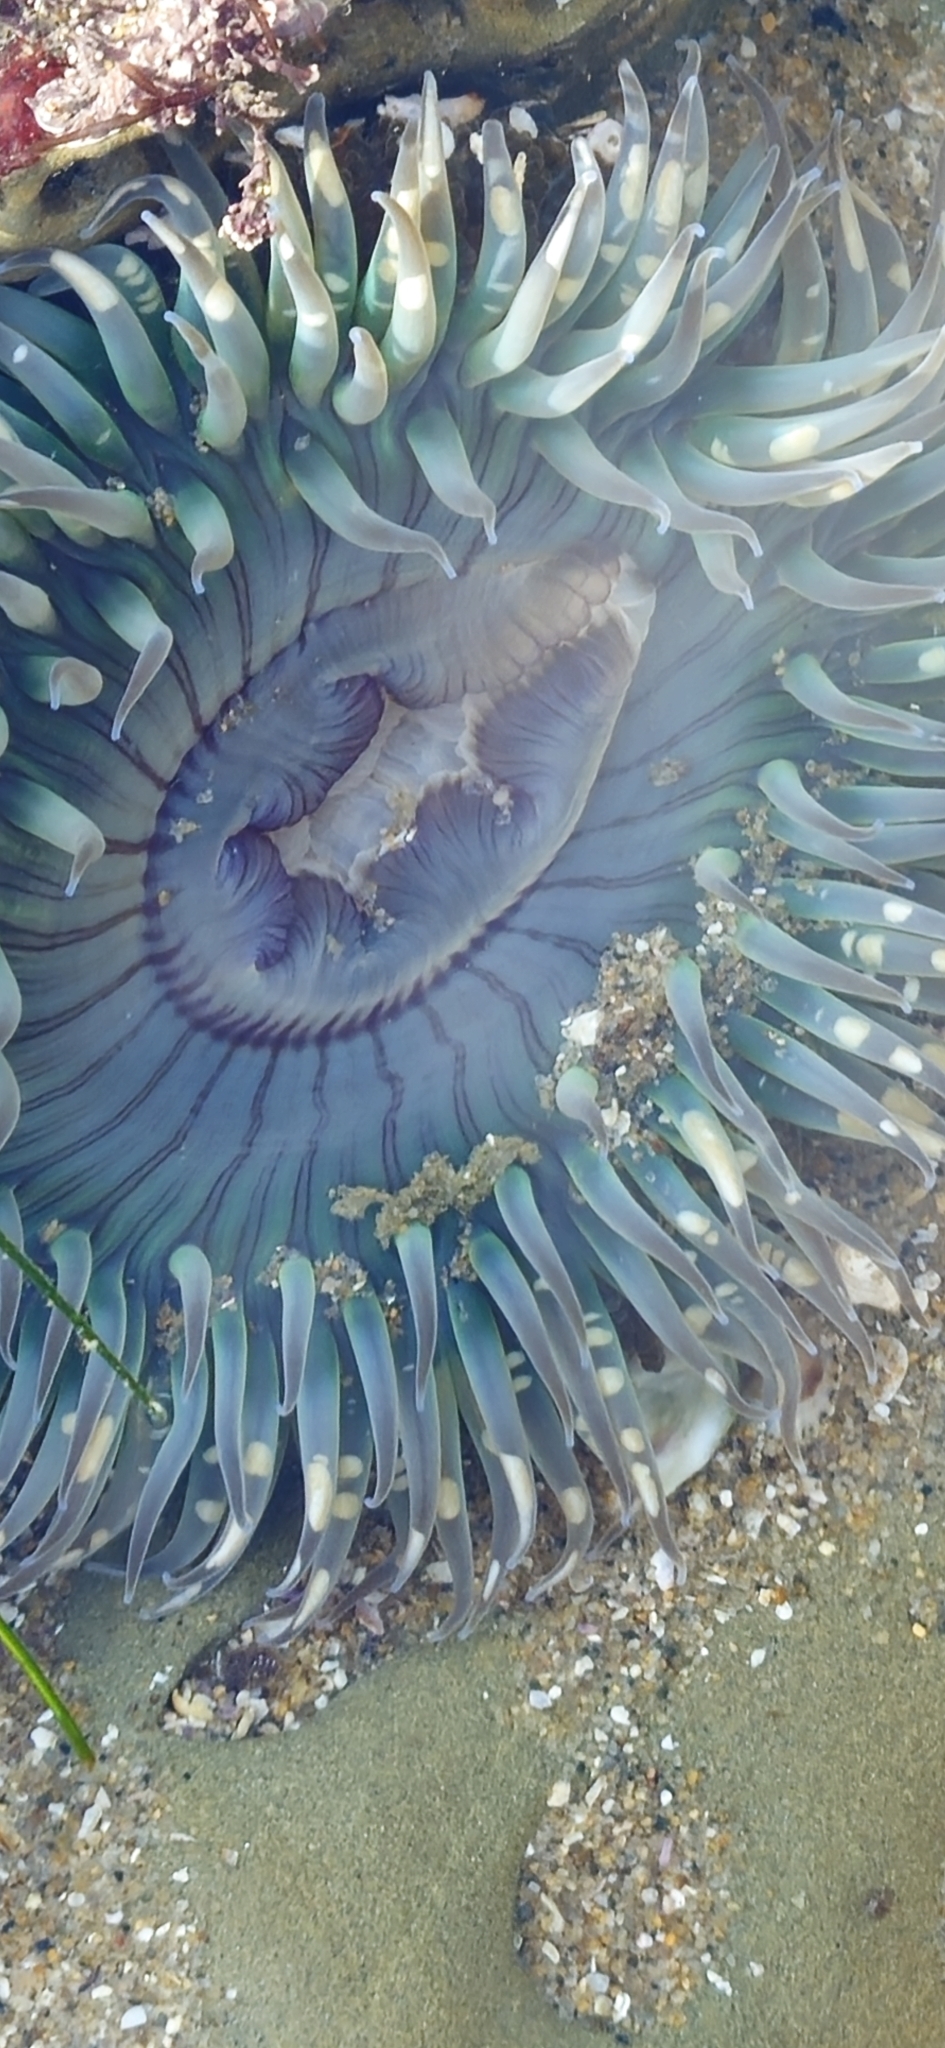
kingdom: Animalia
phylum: Cnidaria
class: Anthozoa
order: Actiniaria
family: Actiniidae
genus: Anthopleura
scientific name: Anthopleura sola
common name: Sun anemone
